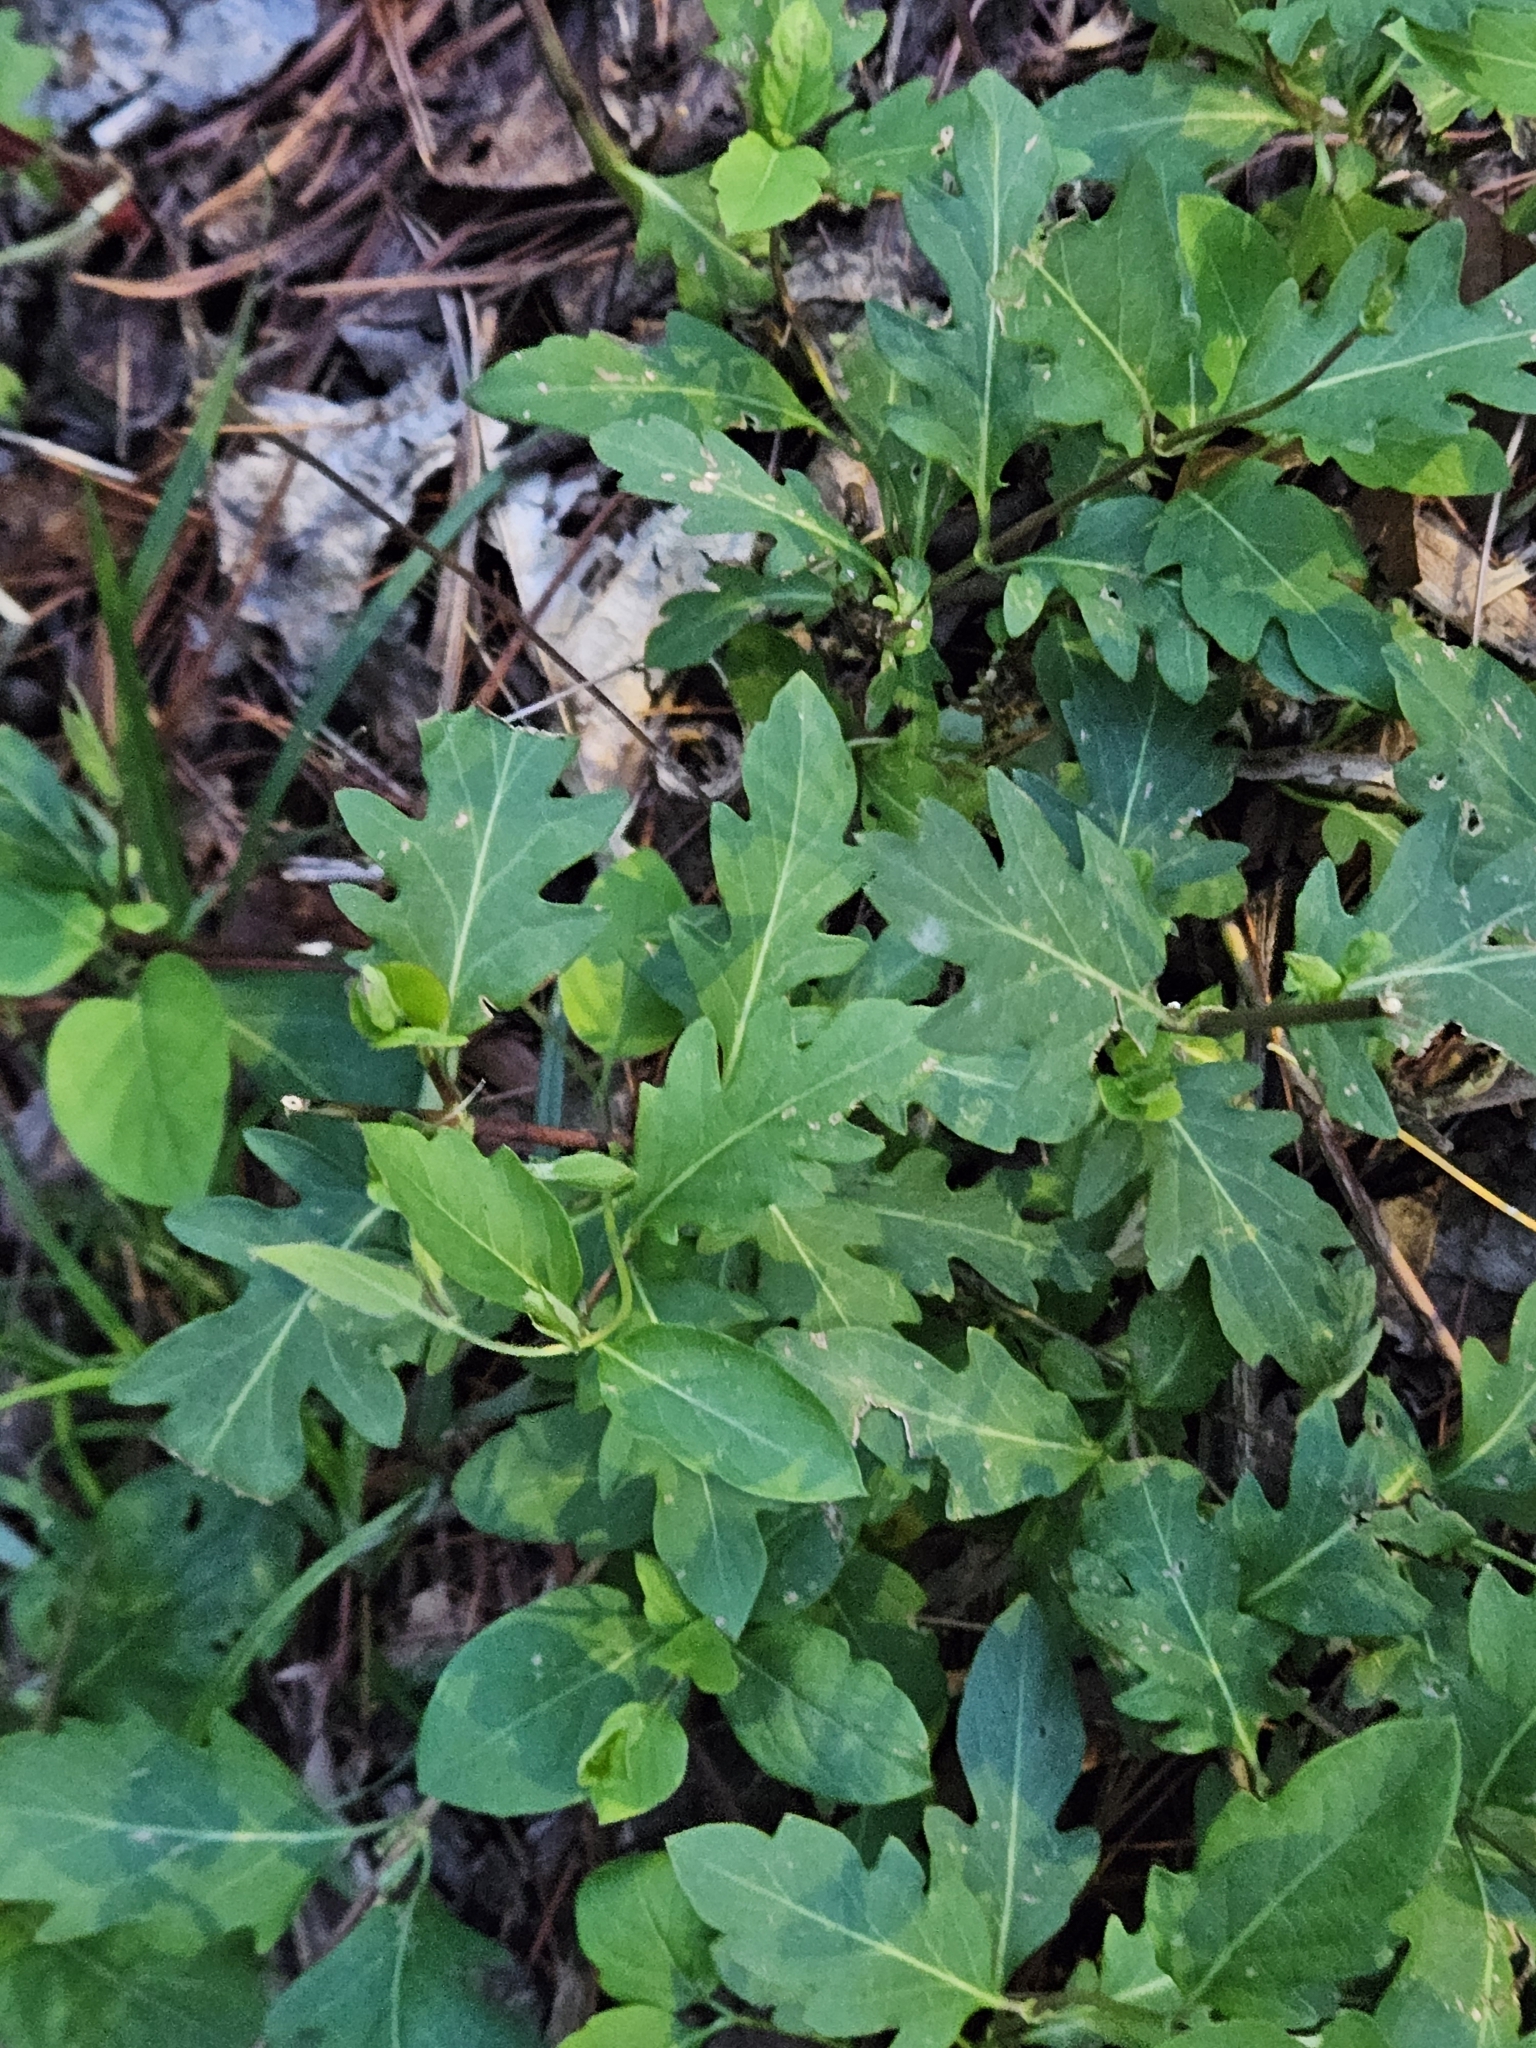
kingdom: Plantae
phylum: Tracheophyta
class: Magnoliopsida
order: Dipsacales
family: Caprifoliaceae
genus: Lonicera
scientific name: Lonicera japonica
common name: Japanese honeysuckle
